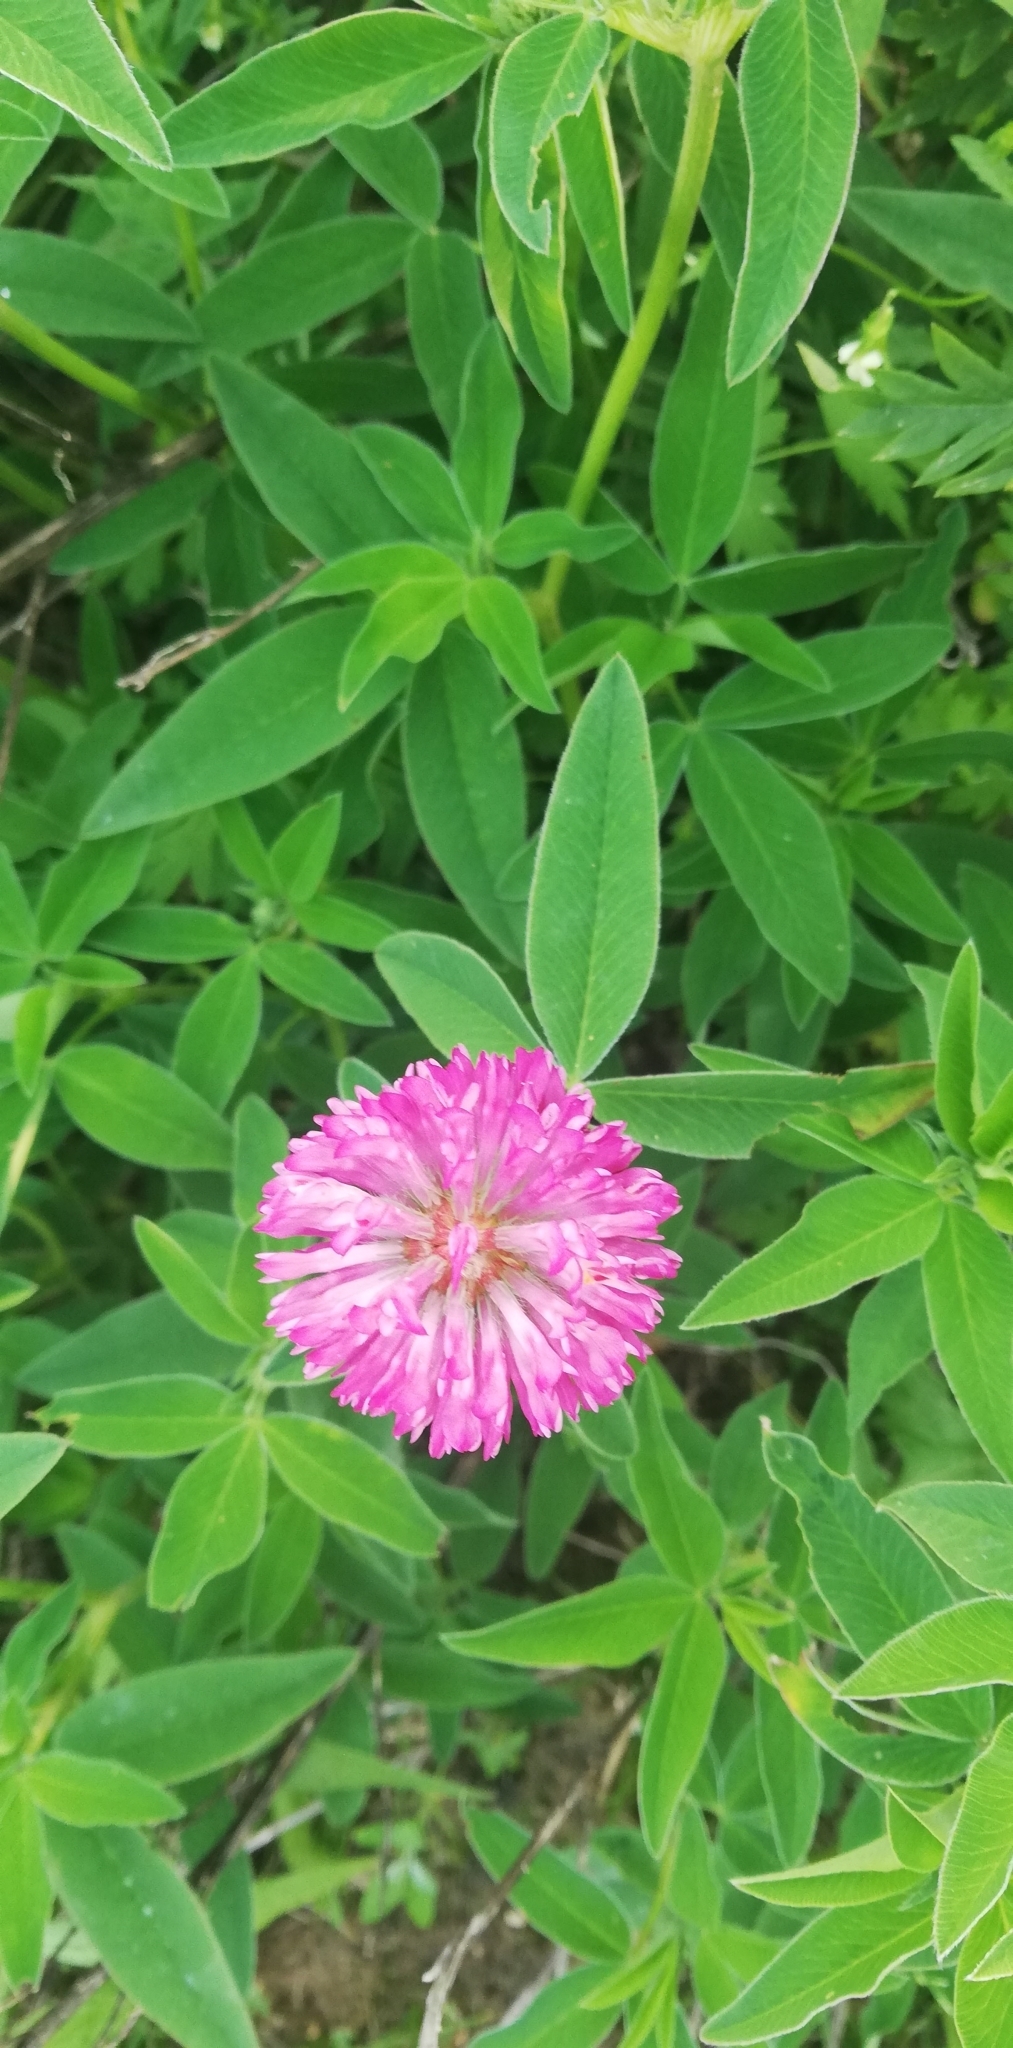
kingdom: Plantae
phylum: Tracheophyta
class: Magnoliopsida
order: Fabales
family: Fabaceae
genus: Trifolium
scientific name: Trifolium medium
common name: Zigzag clover
